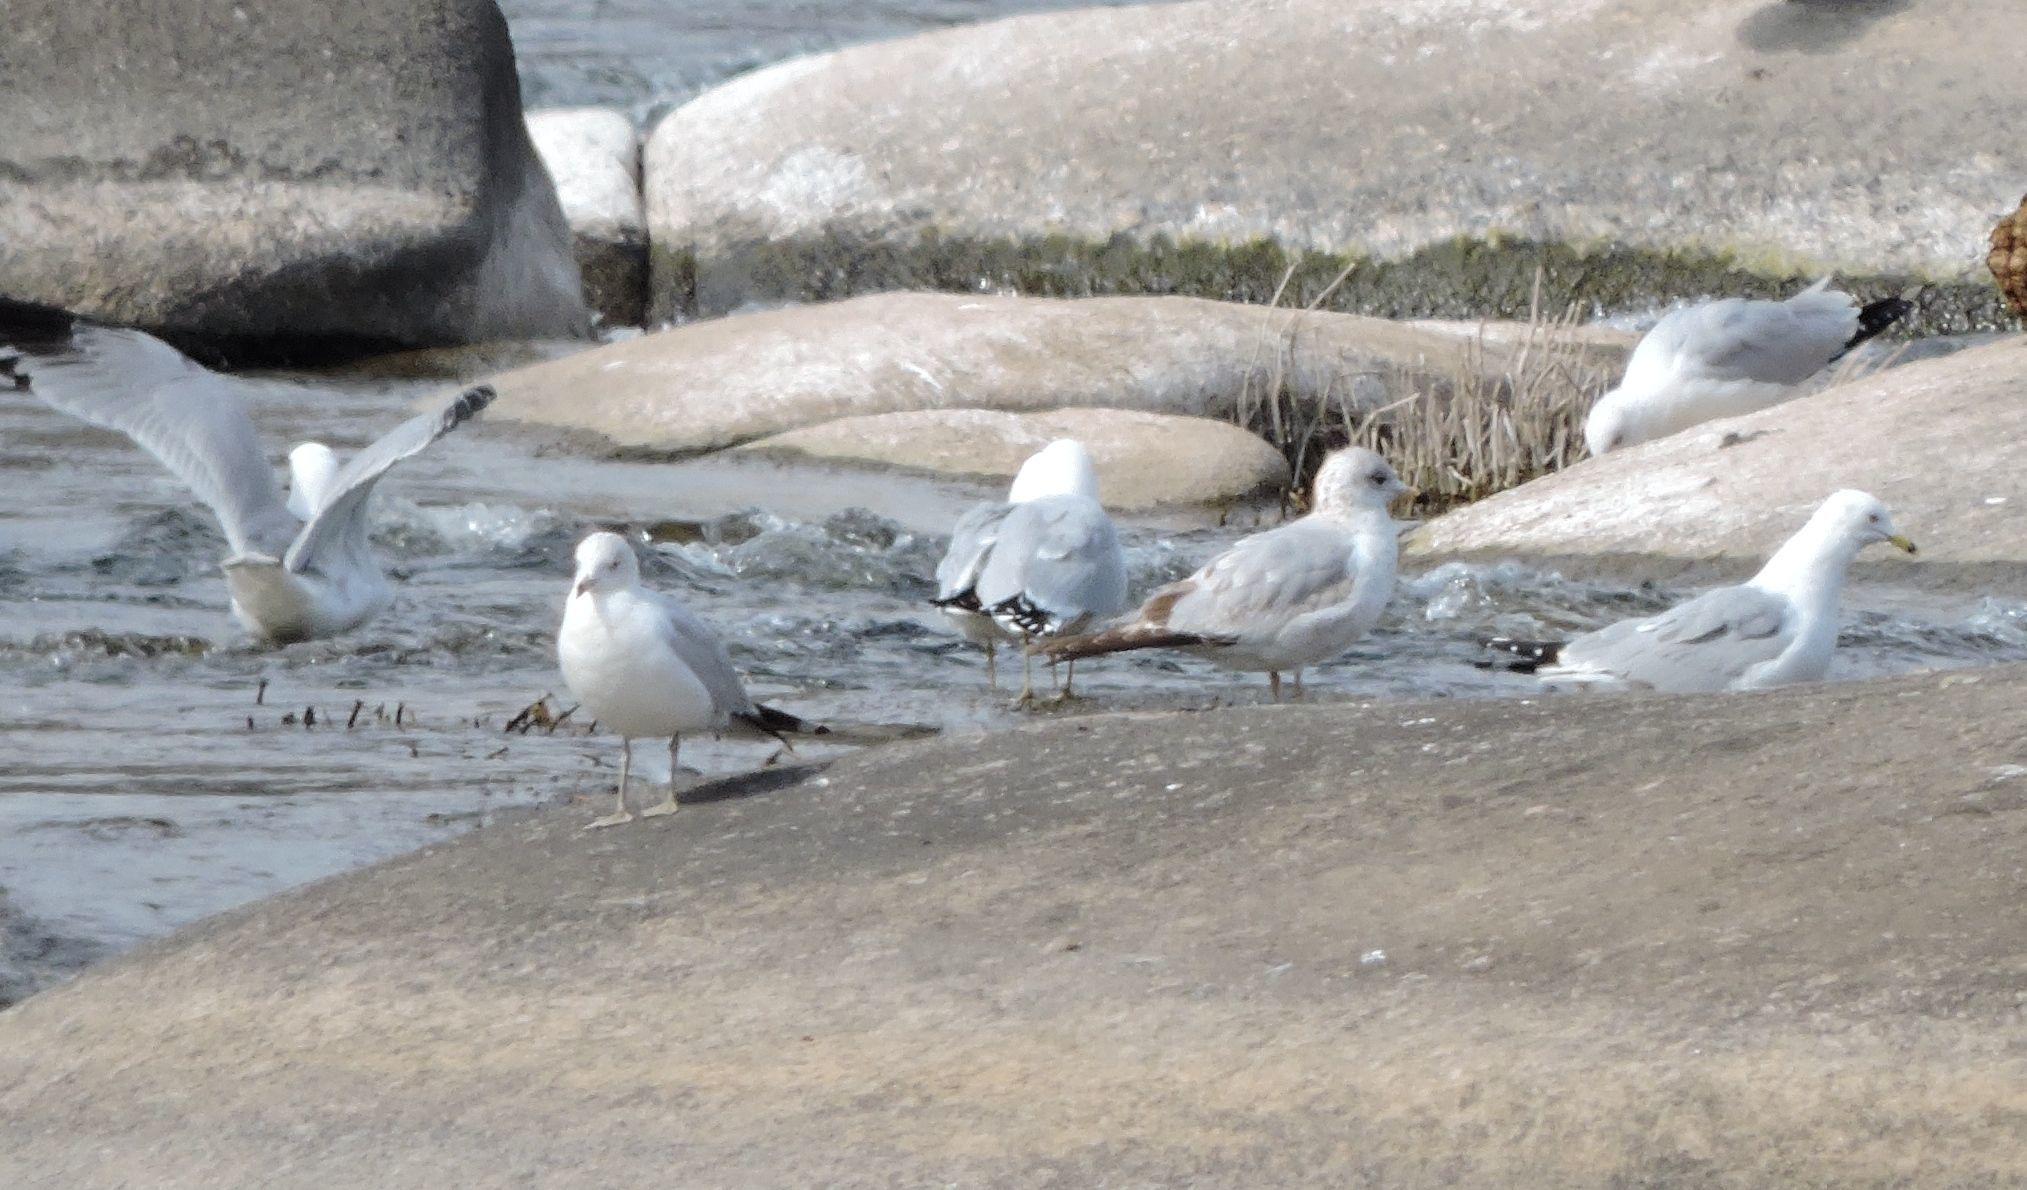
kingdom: Animalia
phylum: Chordata
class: Aves
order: Charadriiformes
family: Laridae
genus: Larus
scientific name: Larus delawarensis
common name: Ring-billed gull
